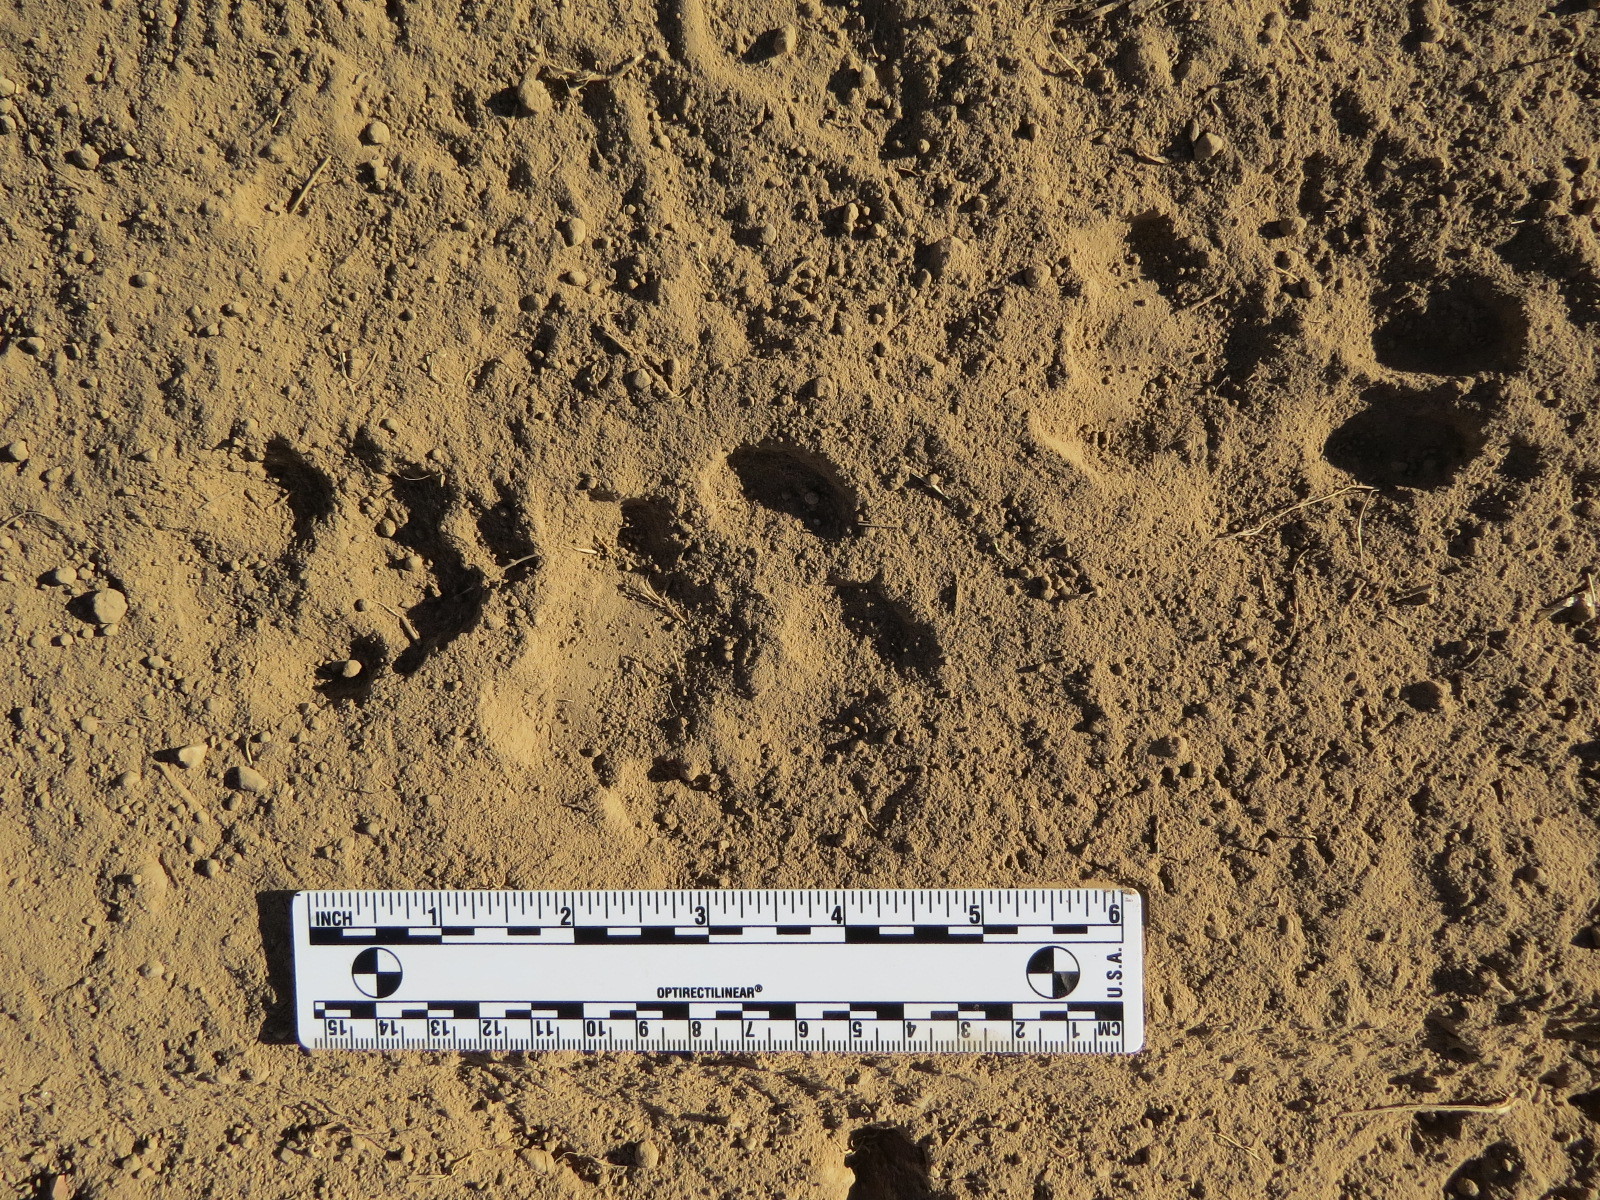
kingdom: Animalia
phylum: Chordata
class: Mammalia
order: Carnivora
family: Felidae
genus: Puma
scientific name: Puma concolor
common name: Puma
